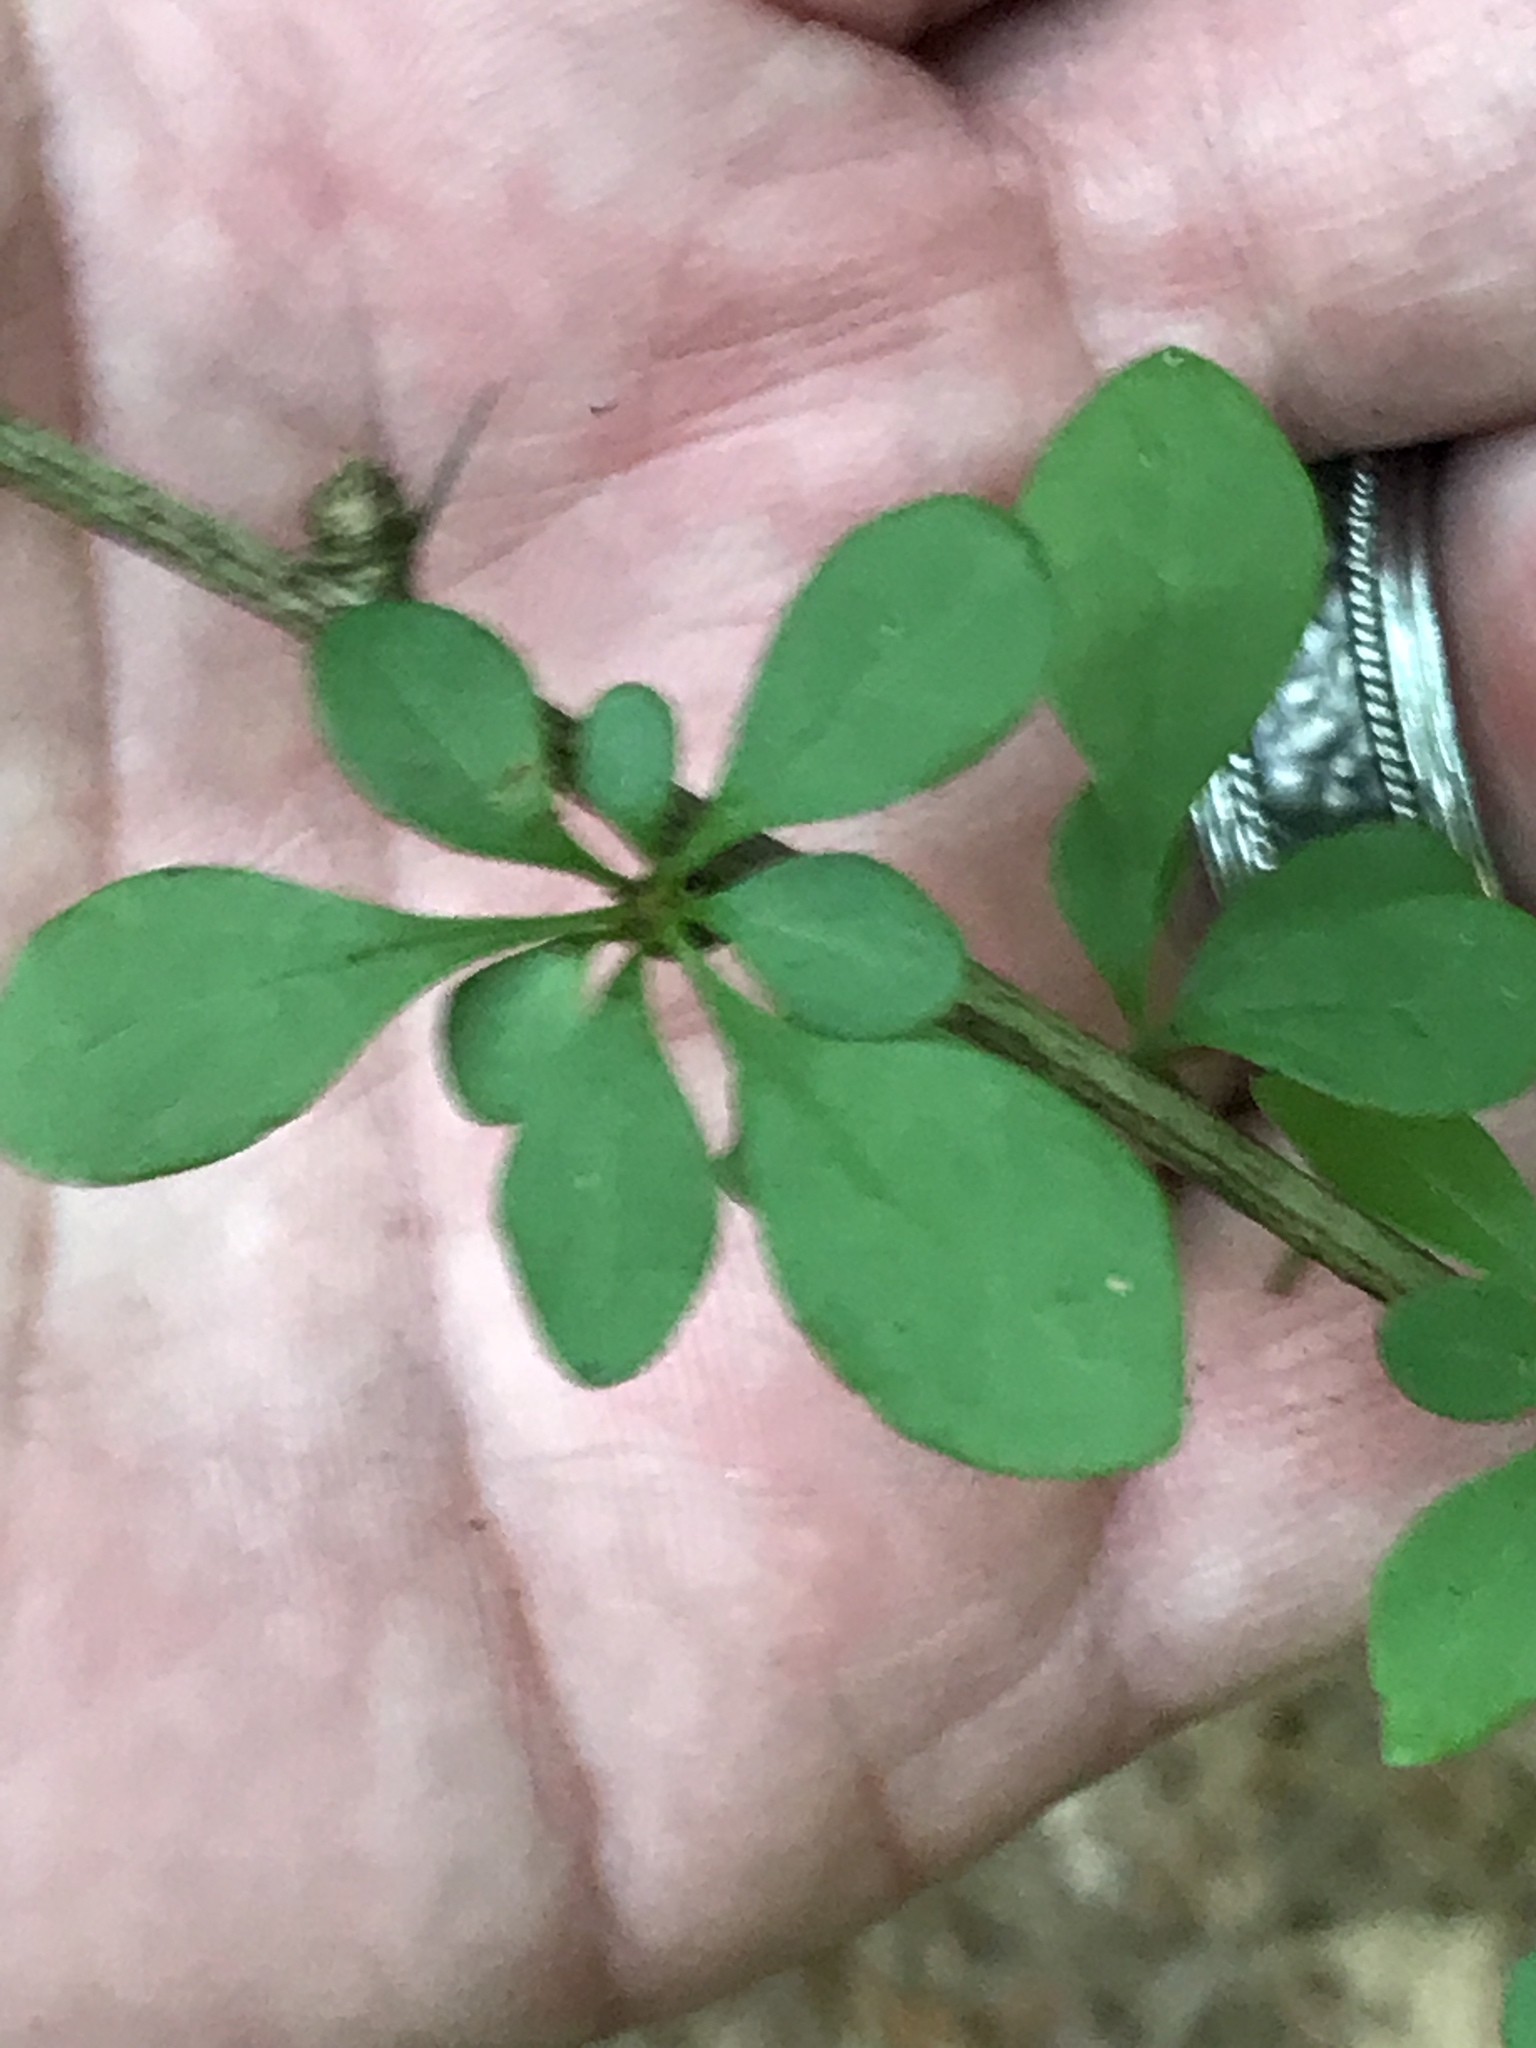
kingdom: Plantae
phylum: Tracheophyta
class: Magnoliopsida
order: Ranunculales
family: Berberidaceae
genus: Berberis
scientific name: Berberis thunbergii
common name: Japanese barberry
